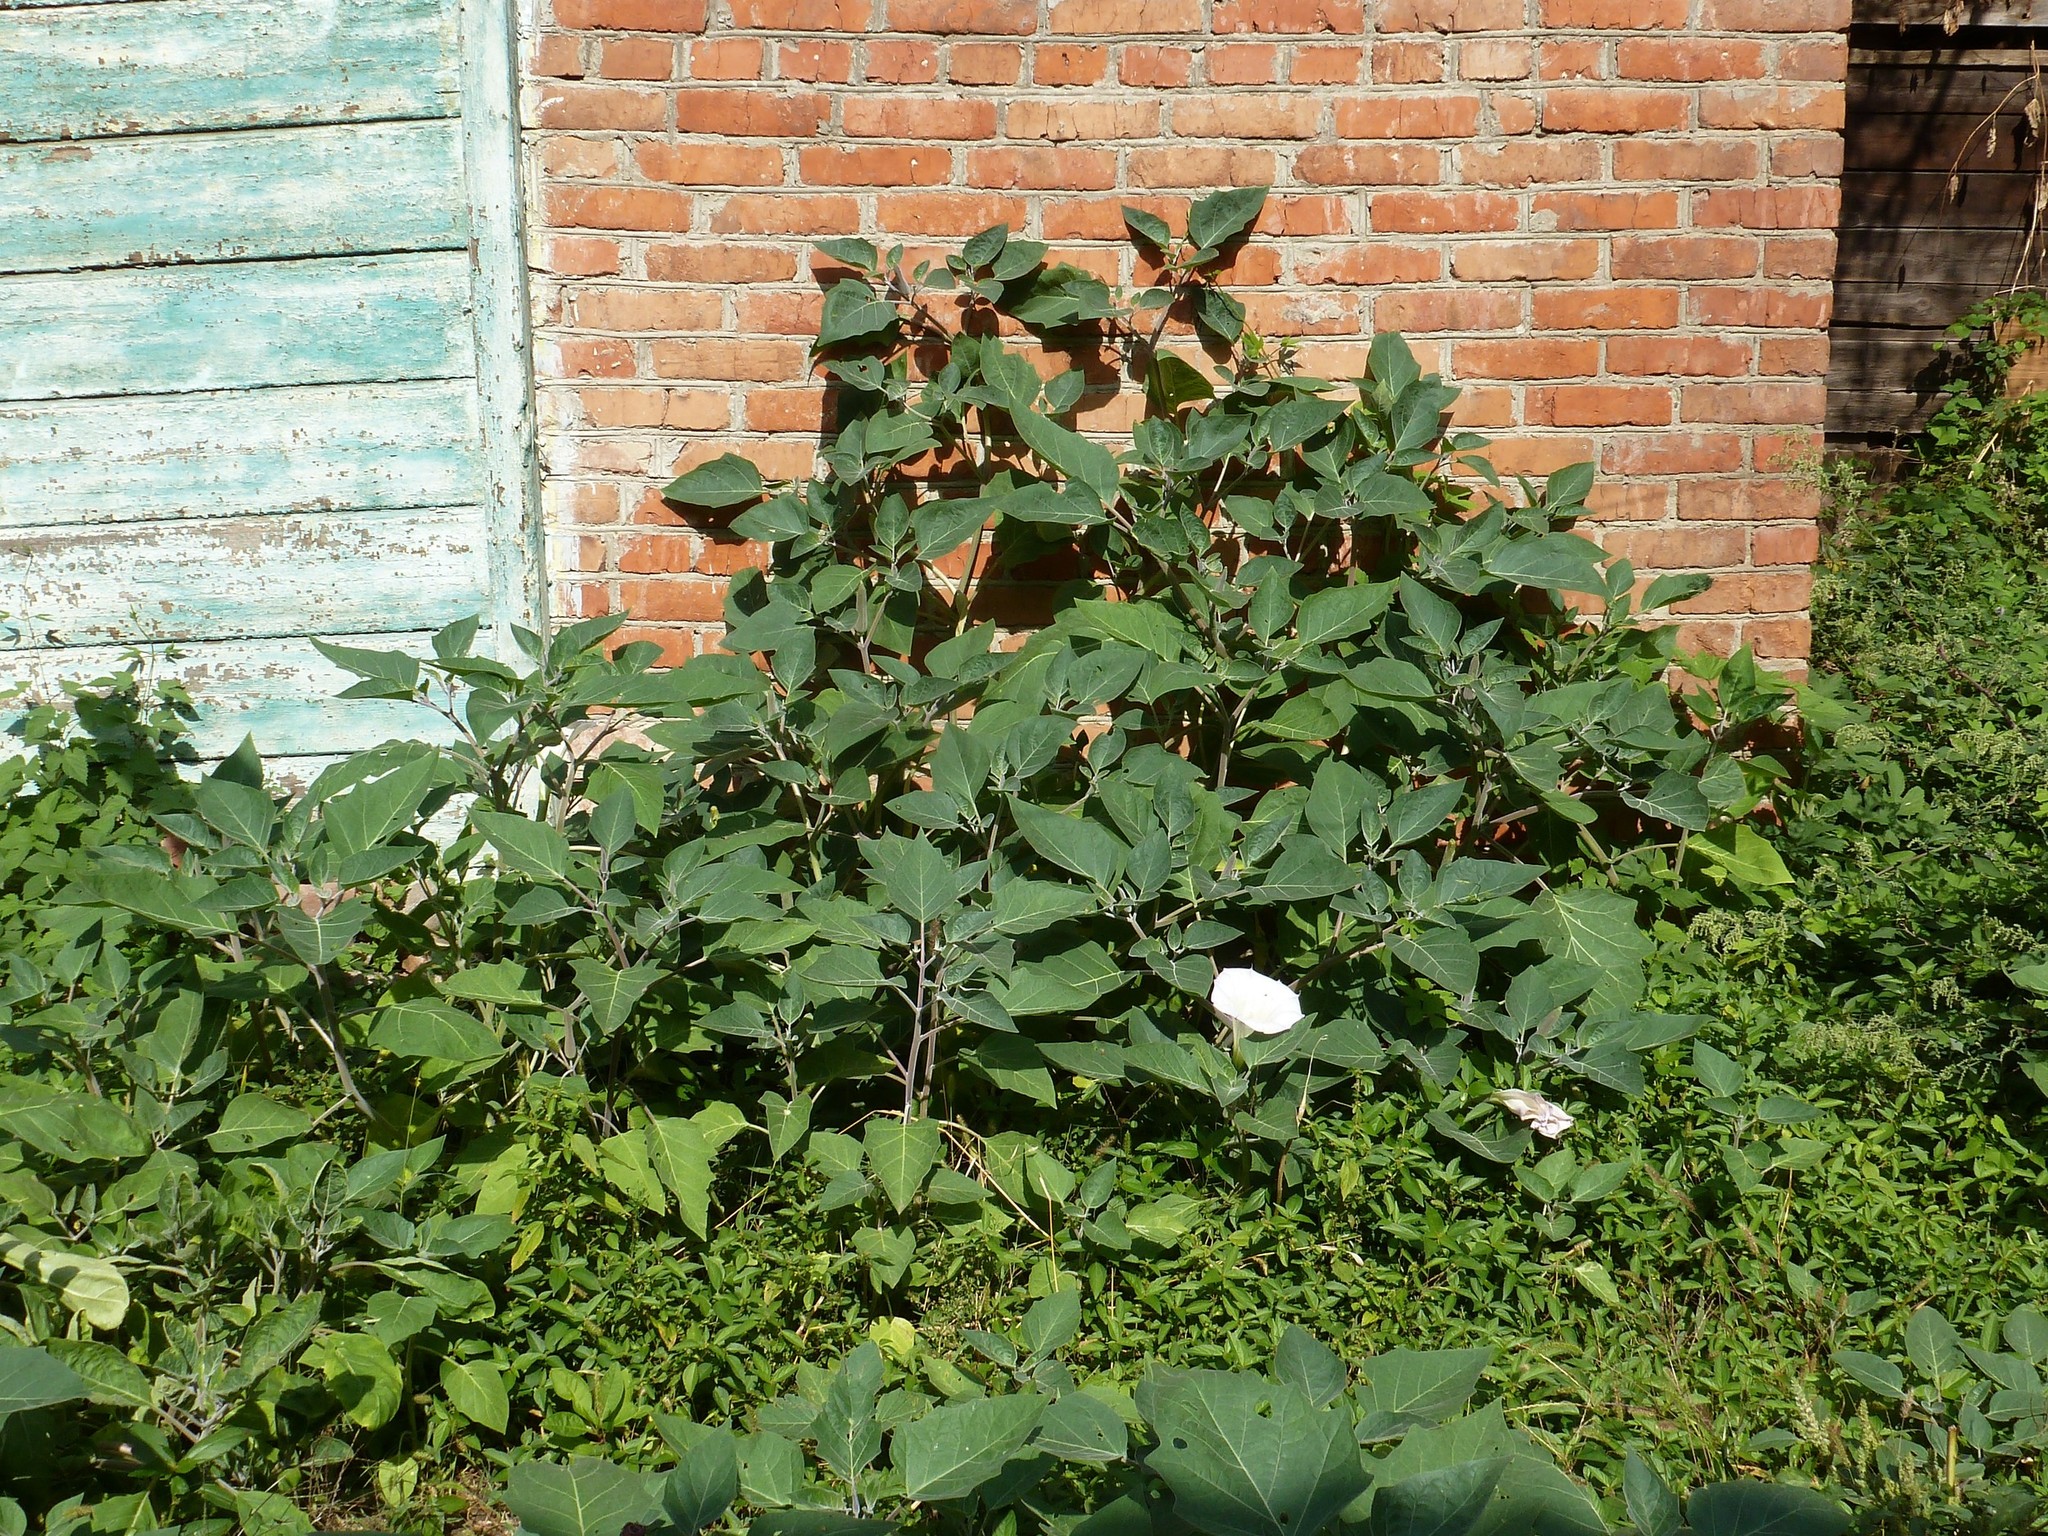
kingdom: Plantae
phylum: Tracheophyta
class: Magnoliopsida
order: Solanales
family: Solanaceae
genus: Datura
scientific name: Datura innoxia
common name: Downy thorn-apple
